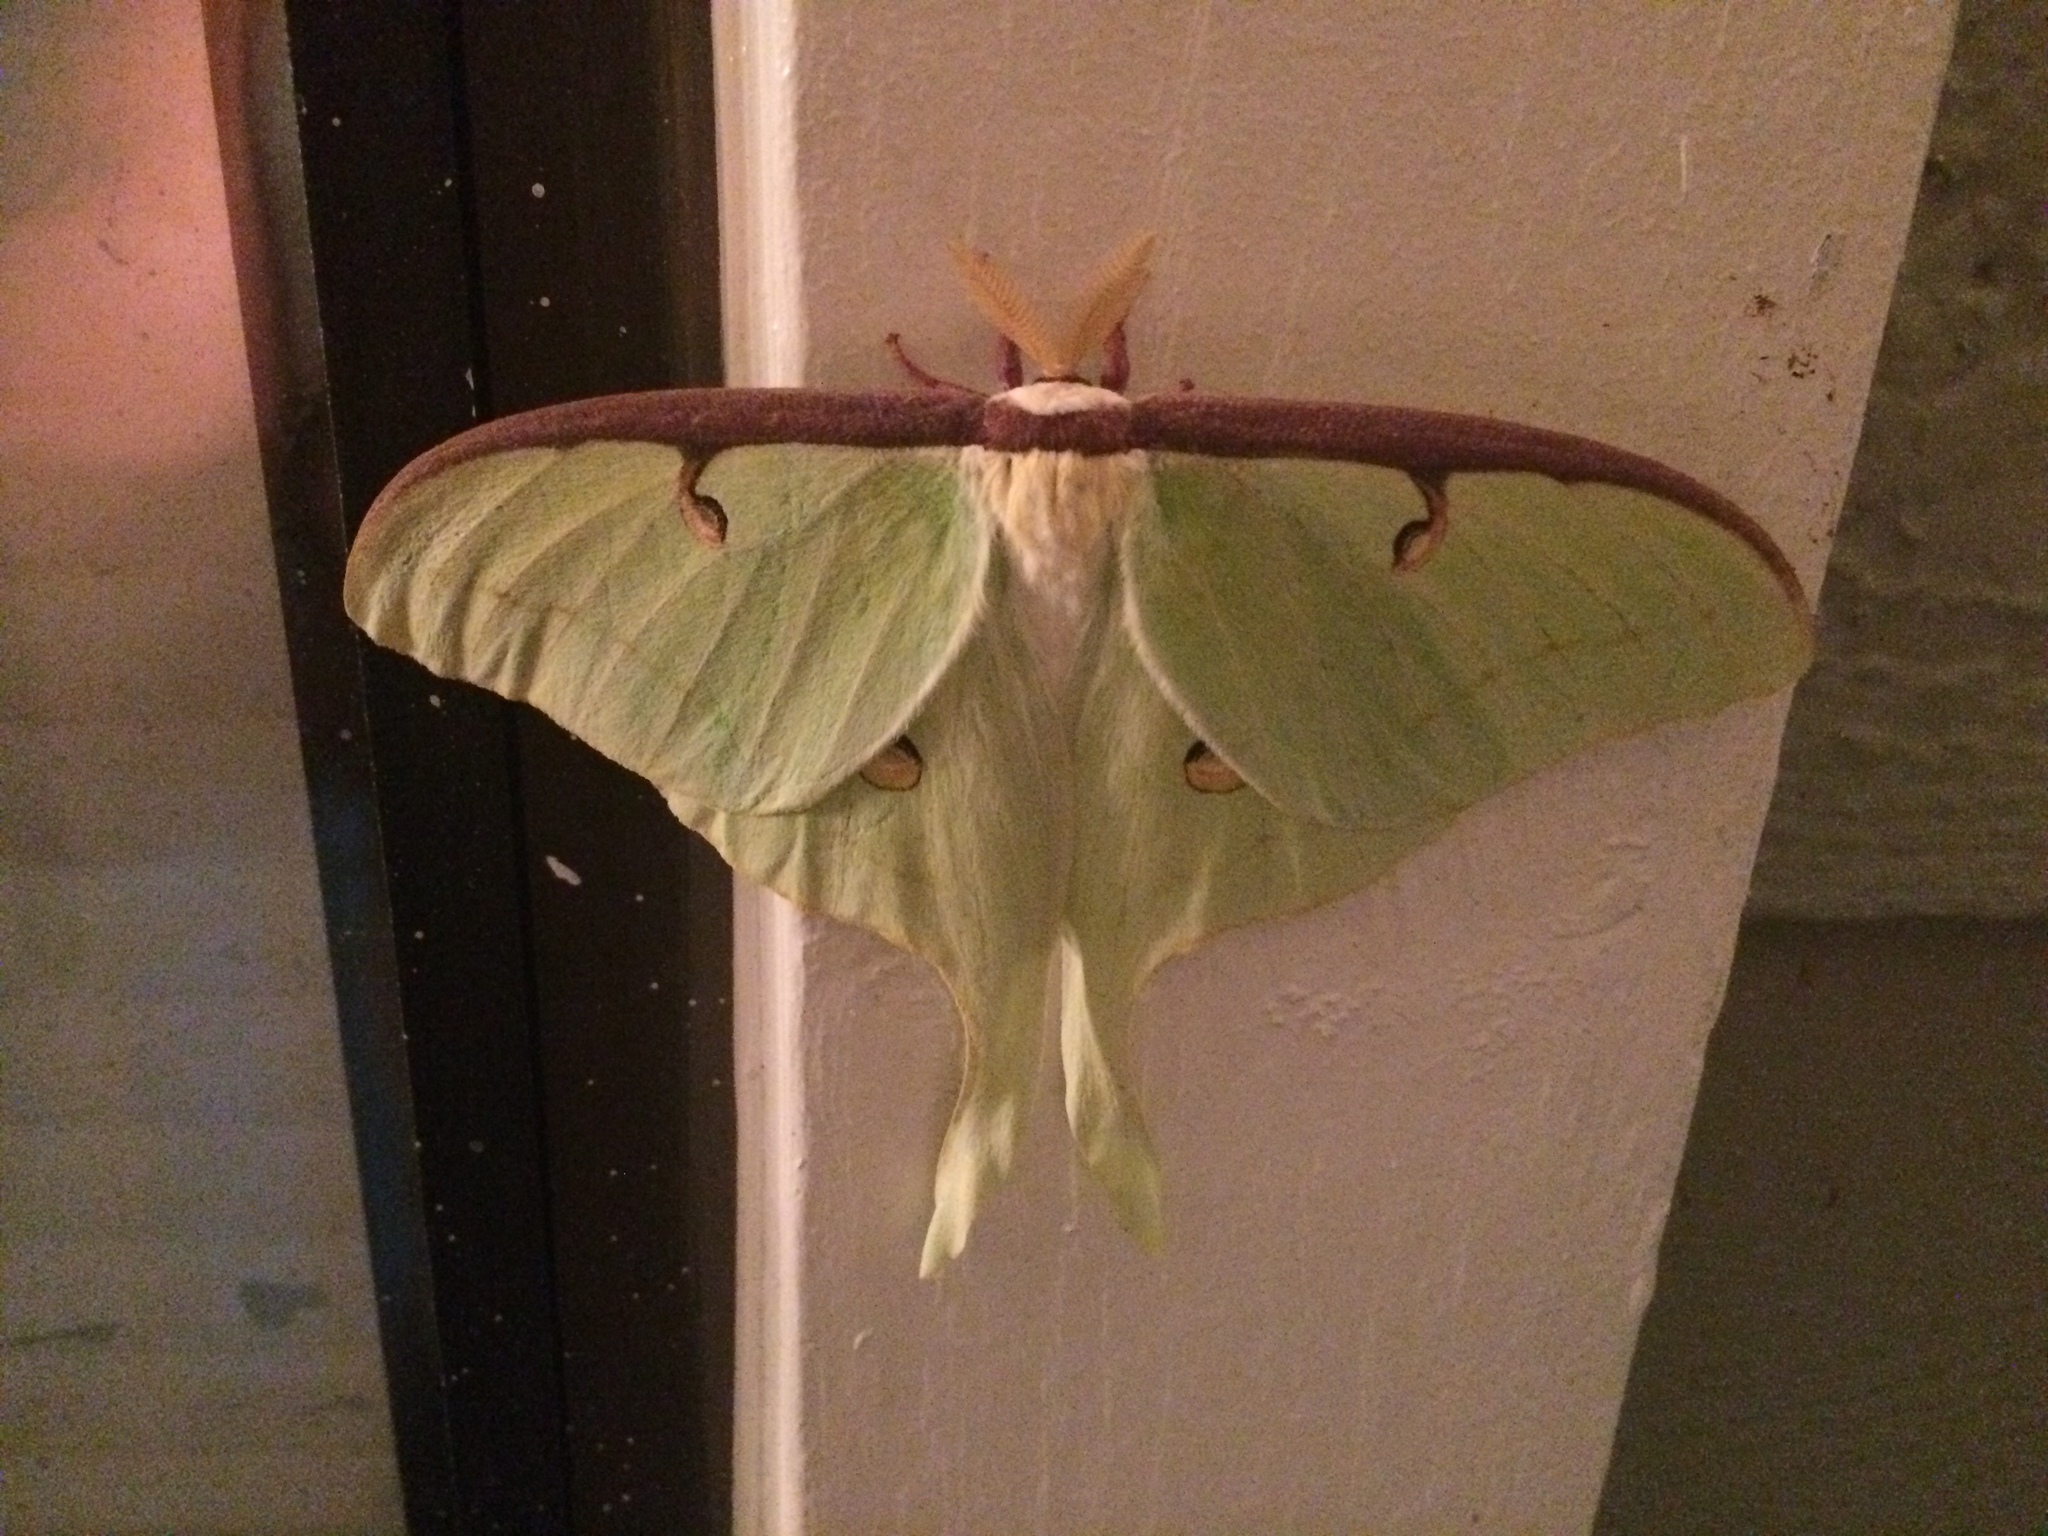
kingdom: Animalia
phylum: Arthropoda
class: Insecta
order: Lepidoptera
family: Saturniidae
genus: Actias
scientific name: Actias luna
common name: Luna moth
